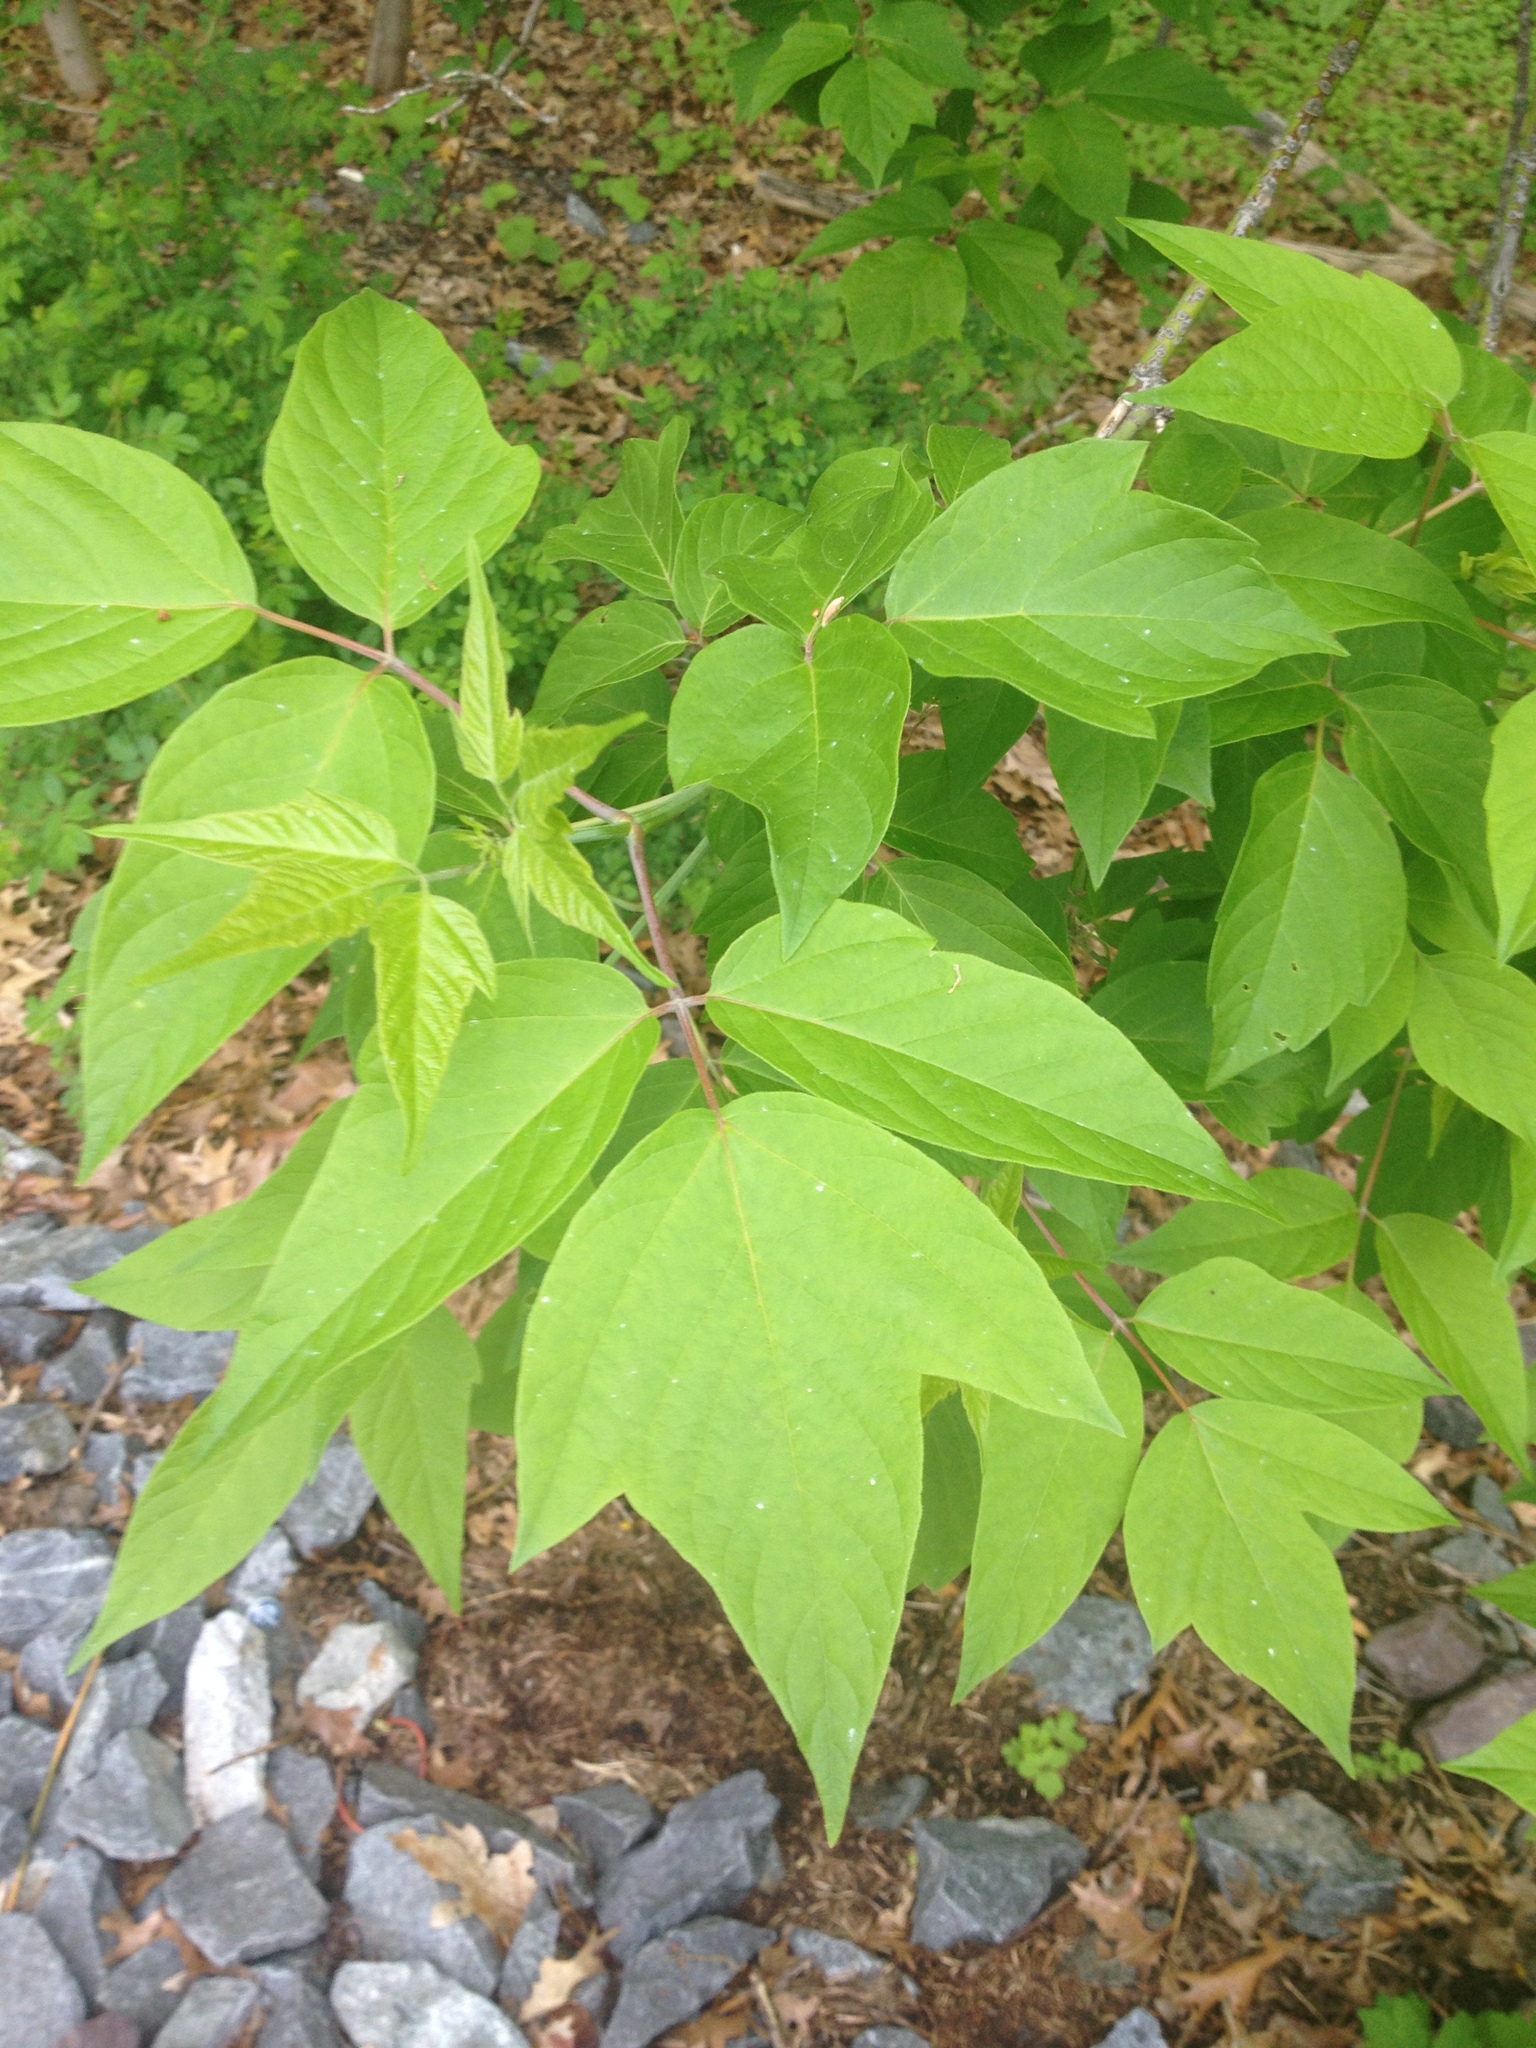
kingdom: Plantae
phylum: Tracheophyta
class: Magnoliopsida
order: Sapindales
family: Sapindaceae
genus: Acer
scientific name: Acer negundo
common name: Ashleaf maple
